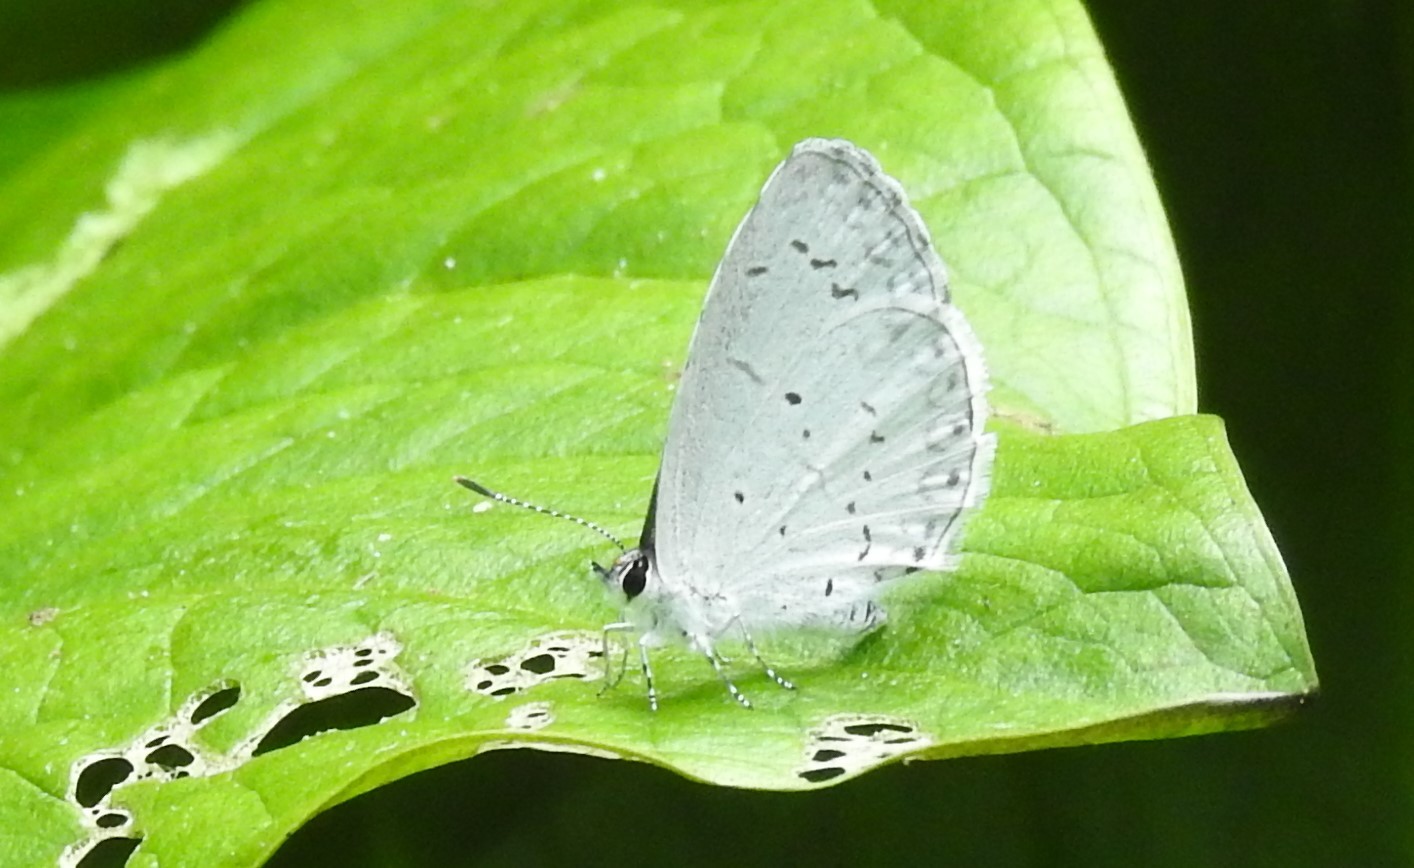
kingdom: Animalia
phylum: Arthropoda
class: Insecta
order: Lepidoptera
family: Lycaenidae
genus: Cyaniris
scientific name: Cyaniris neglecta
